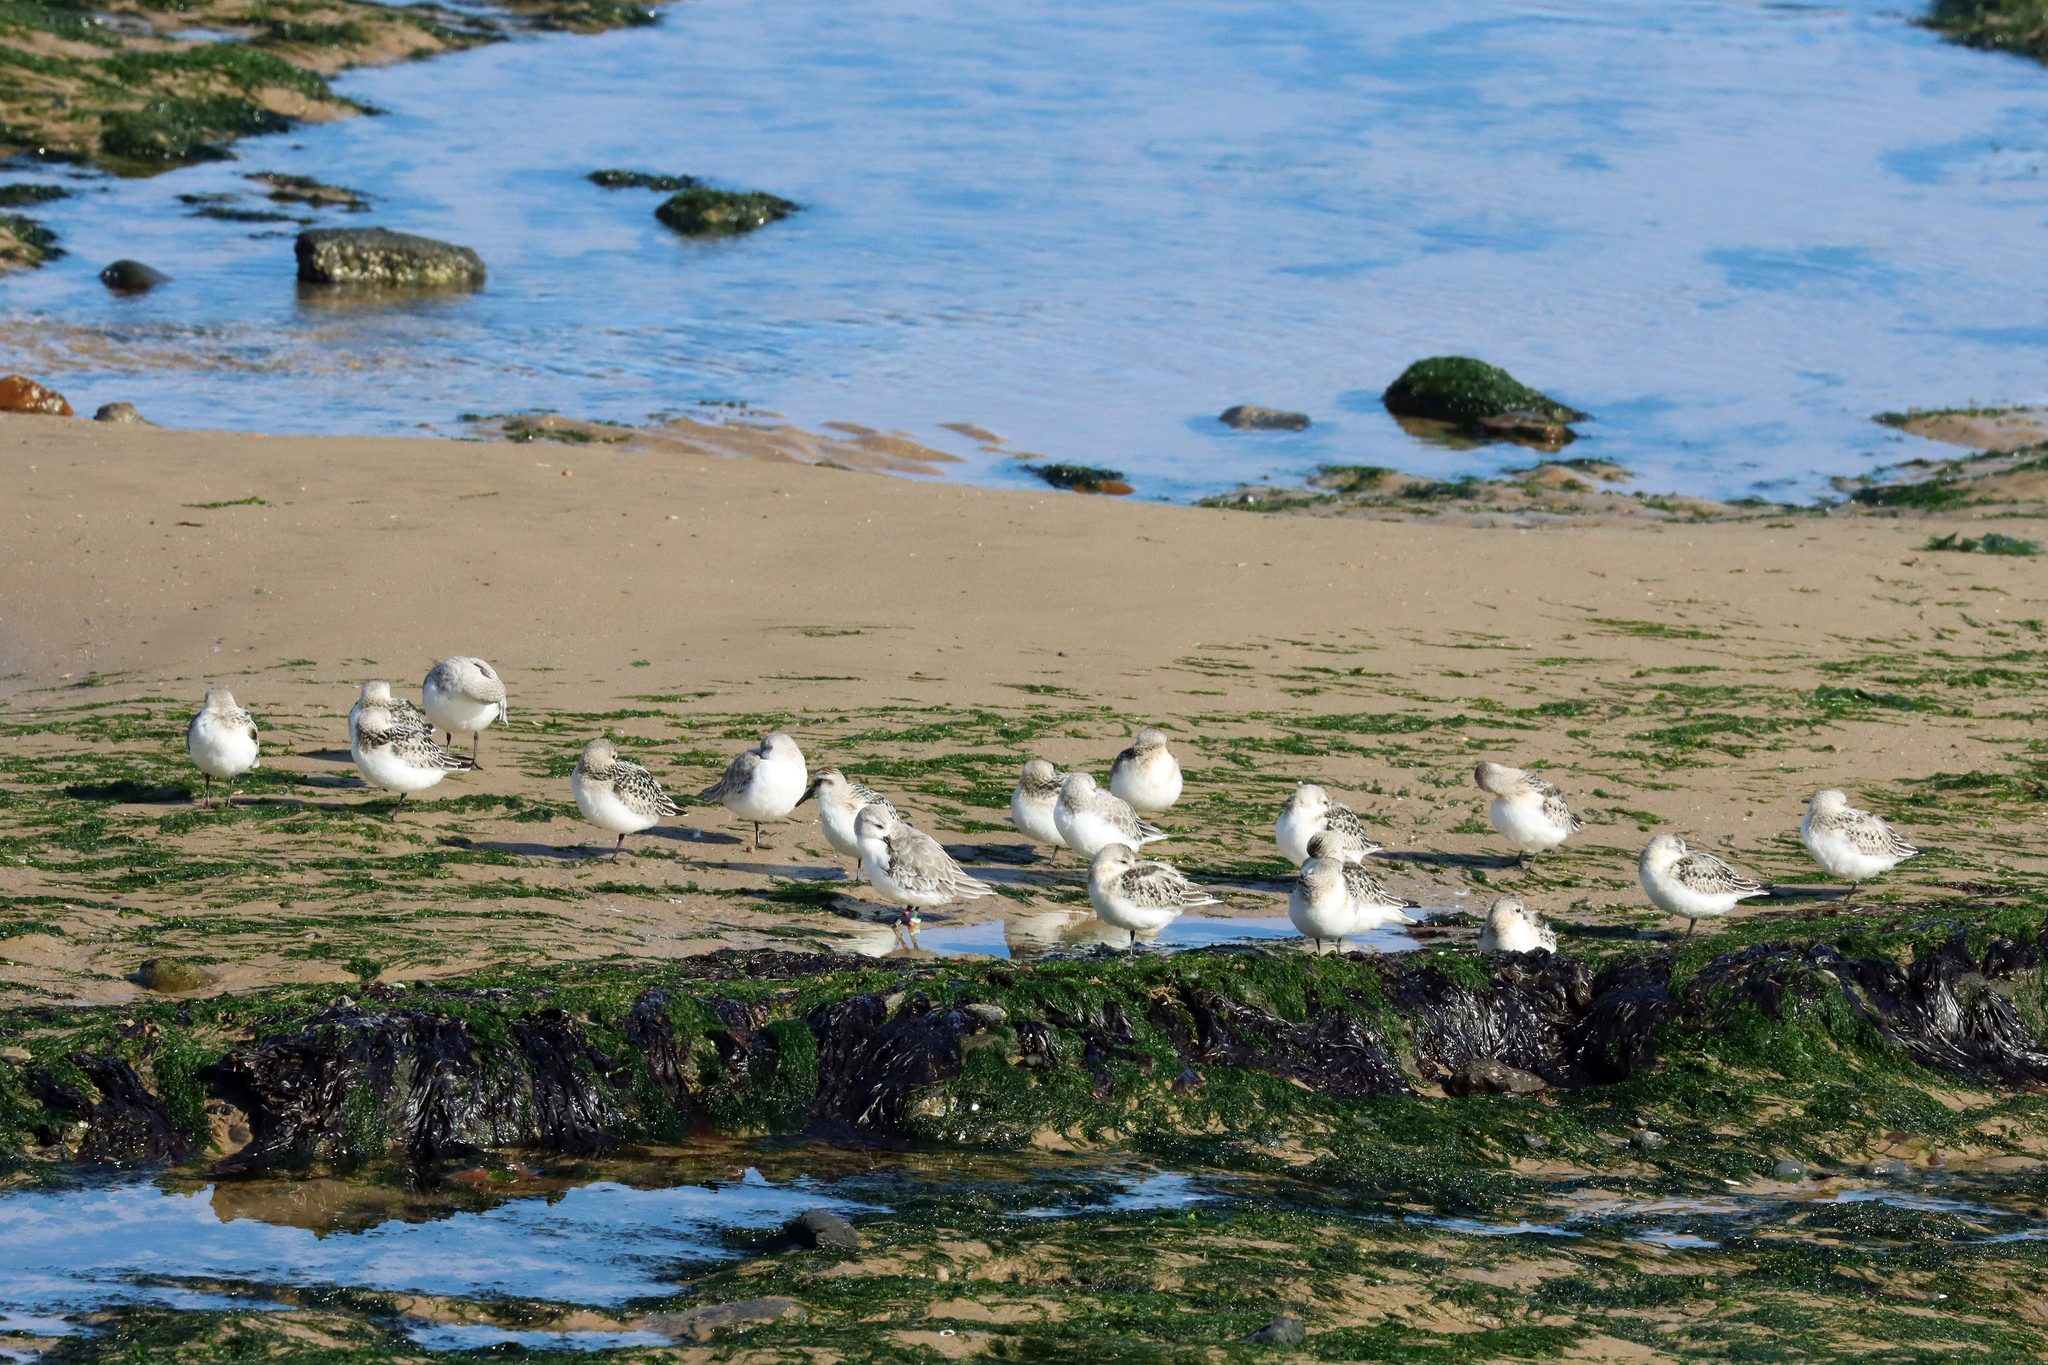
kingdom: Animalia
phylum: Chordata
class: Aves
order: Charadriiformes
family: Scolopacidae
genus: Calidris
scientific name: Calidris alba
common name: Sanderling
